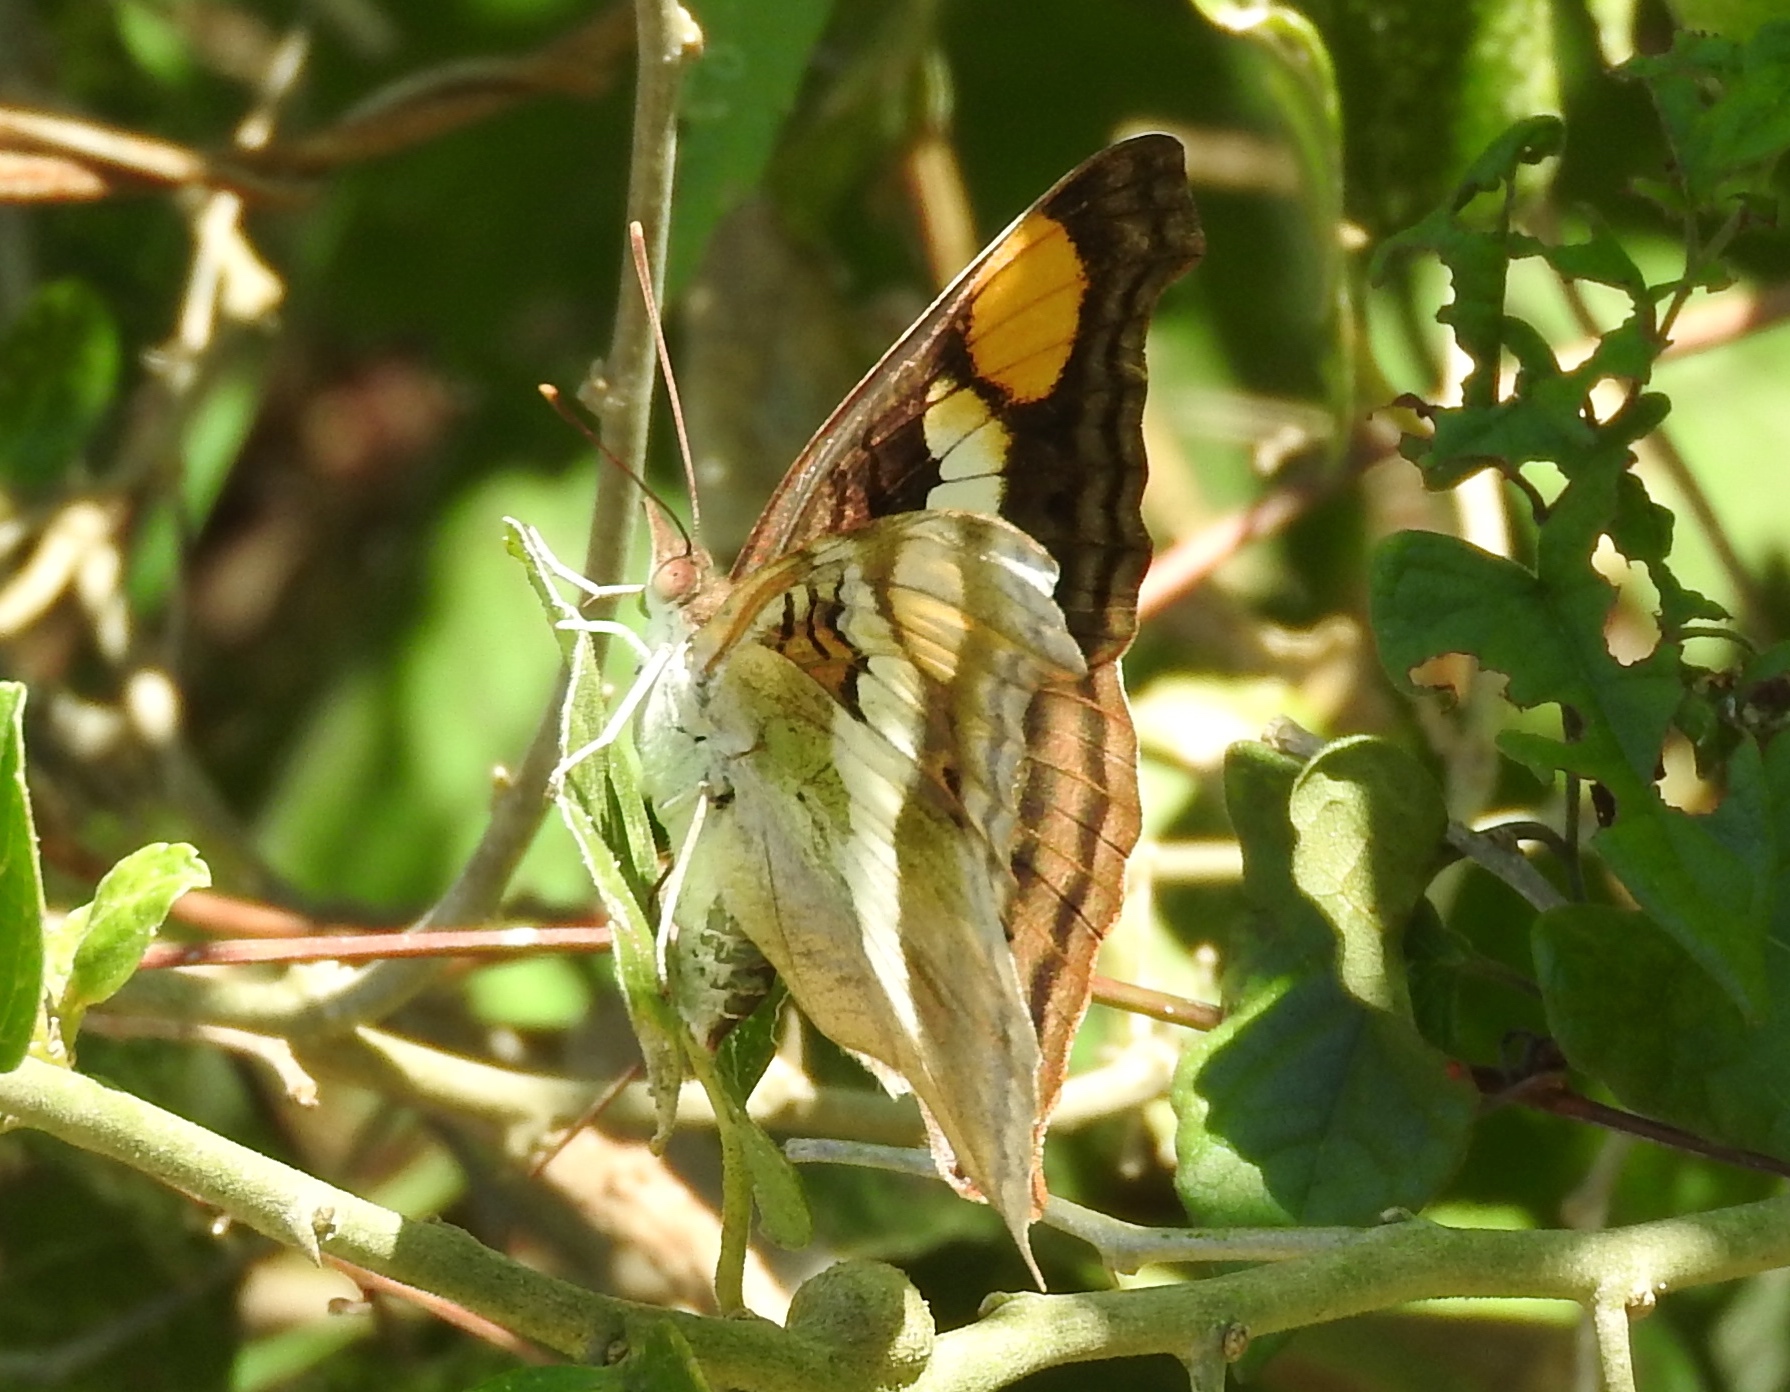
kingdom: Animalia
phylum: Arthropoda
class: Insecta
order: Lepidoptera
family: Nymphalidae
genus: Doxocopa
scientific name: Doxocopa laure
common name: Silver emperor
